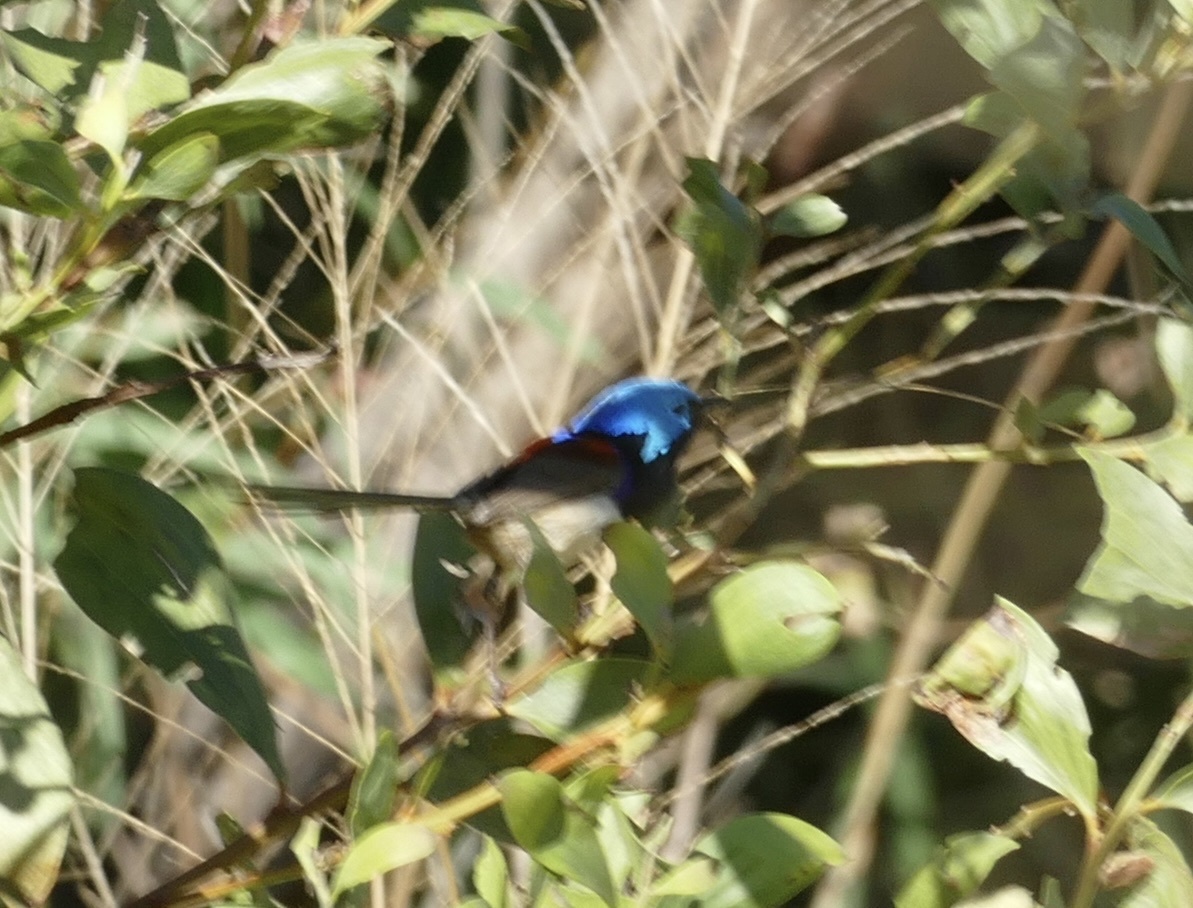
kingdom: Animalia
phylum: Chordata
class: Aves
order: Passeriformes
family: Maluridae
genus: Malurus
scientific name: Malurus lamberti
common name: Variegated fairywren
